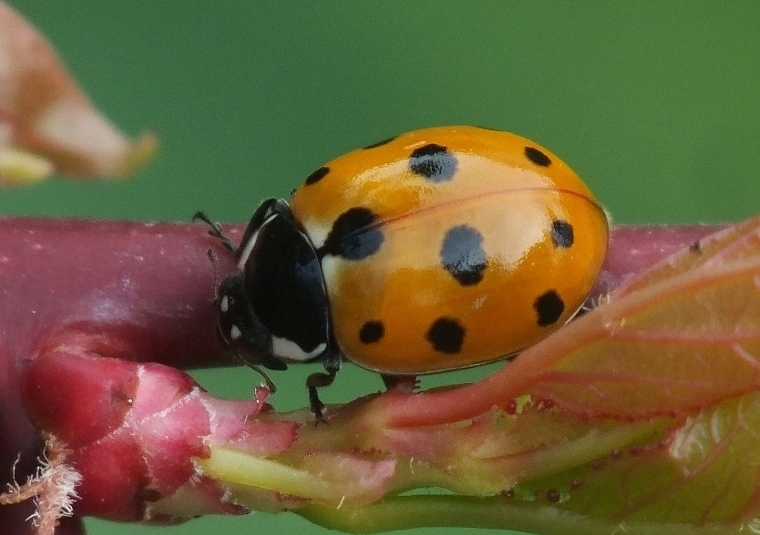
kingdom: Animalia
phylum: Arthropoda
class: Insecta
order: Coleoptera
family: Coccinellidae
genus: Coccinella
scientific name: Coccinella undecimpunctata
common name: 11-spot ladybird
